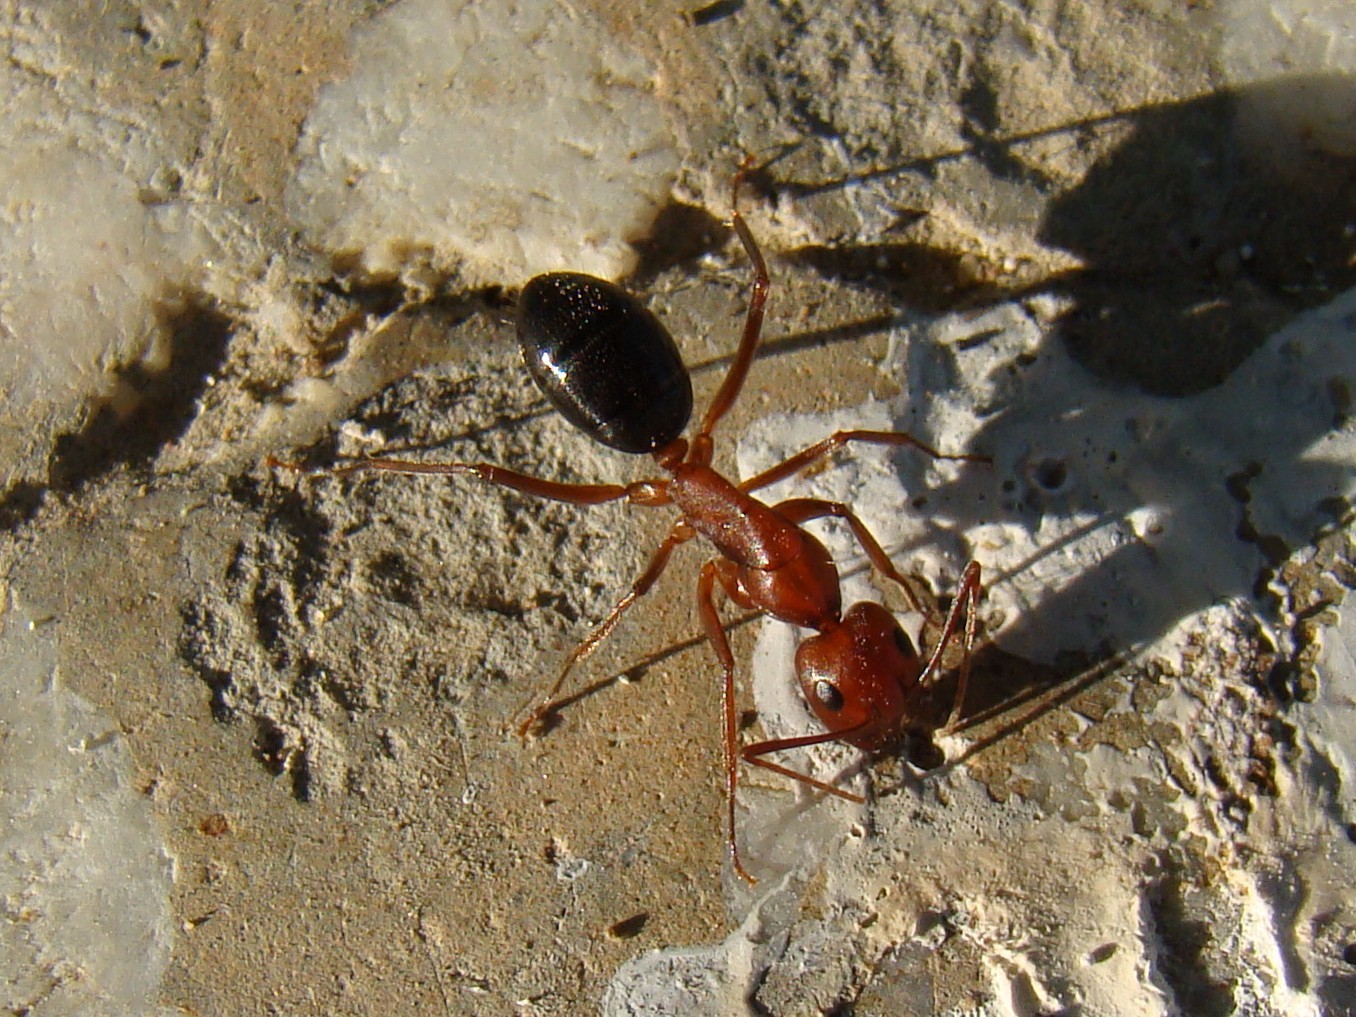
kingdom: Animalia
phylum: Arthropoda
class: Insecta
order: Hymenoptera
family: Formicidae
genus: Camponotus
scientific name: Camponotus turkestanicus
